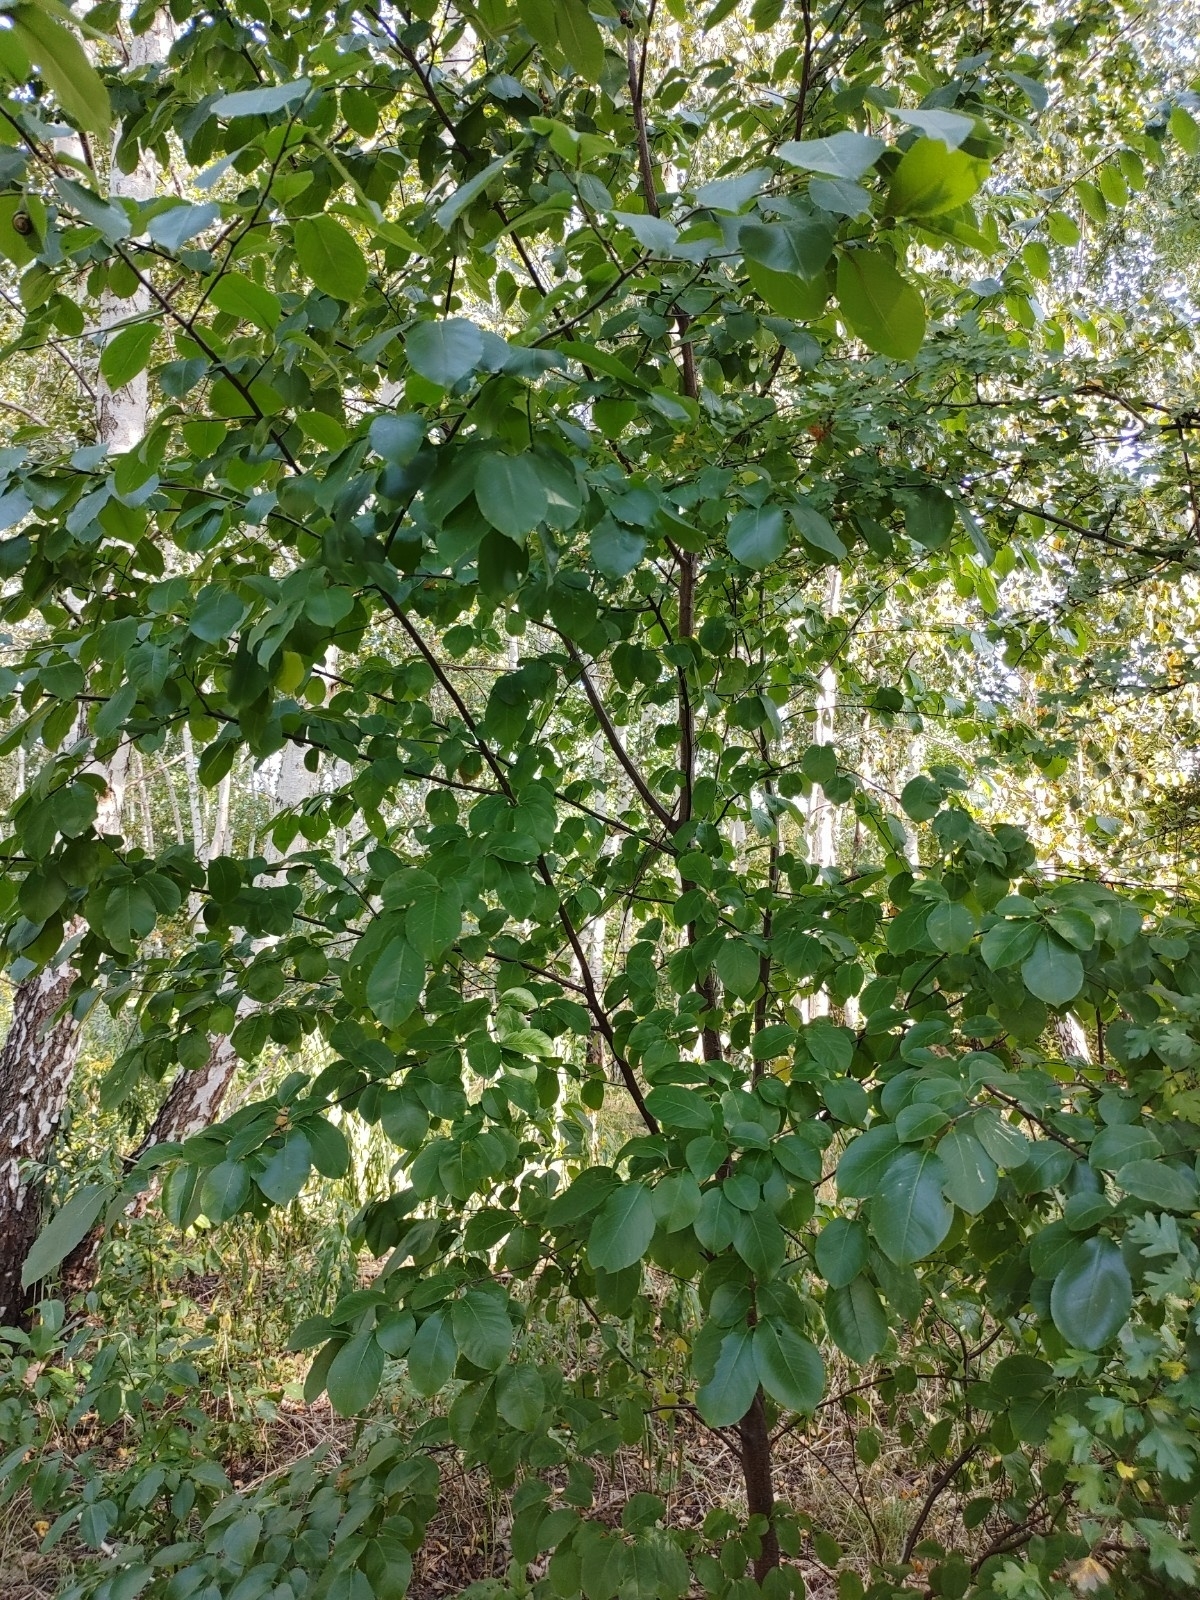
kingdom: Plantae
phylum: Tracheophyta
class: Magnoliopsida
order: Rosales
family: Rosaceae
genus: Prunus
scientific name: Prunus serotina
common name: Black cherry
